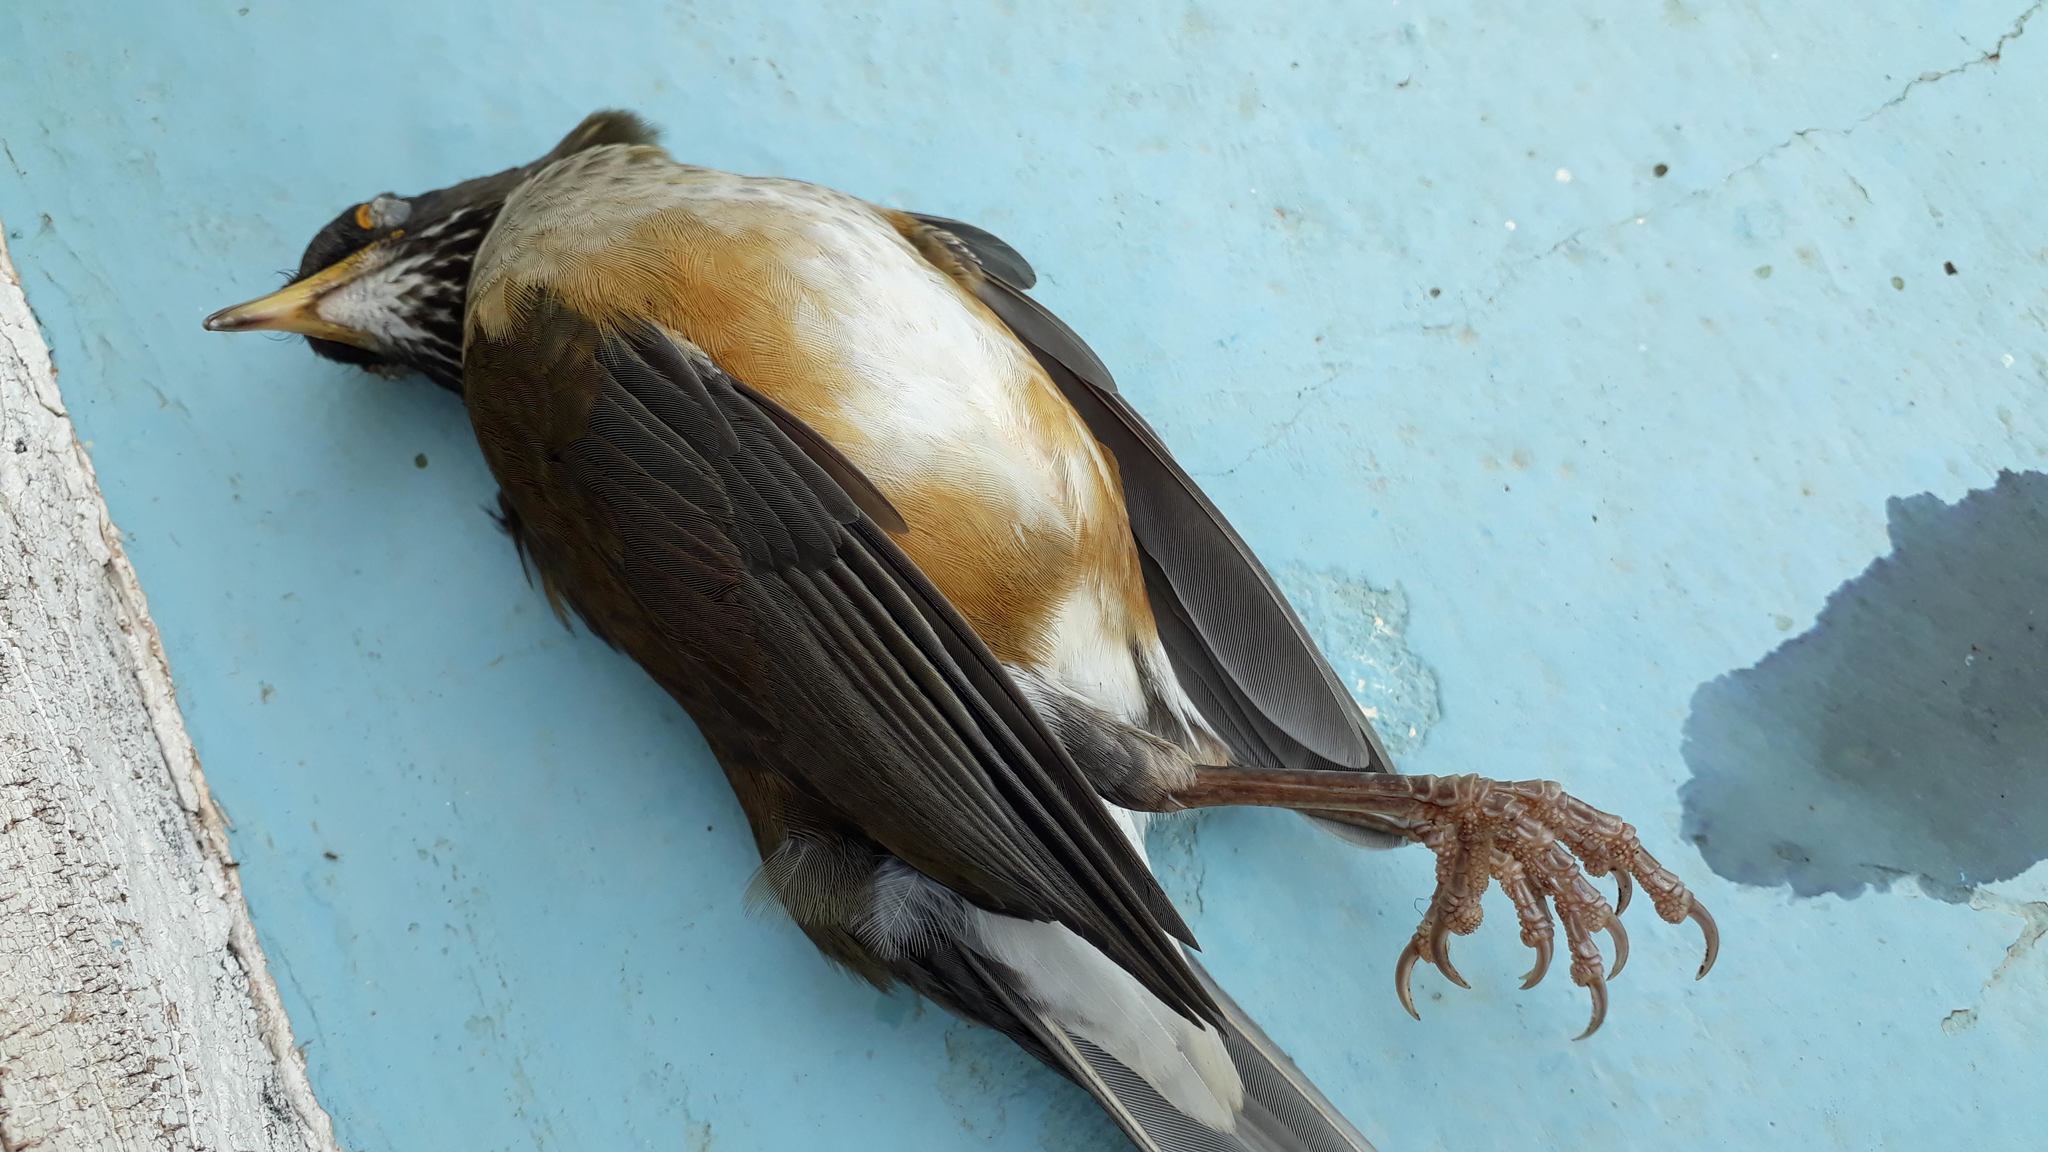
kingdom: Animalia
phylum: Chordata
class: Aves
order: Passeriformes
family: Turdidae
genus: Turdus
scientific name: Turdus albicollis
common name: White-necked thrush
